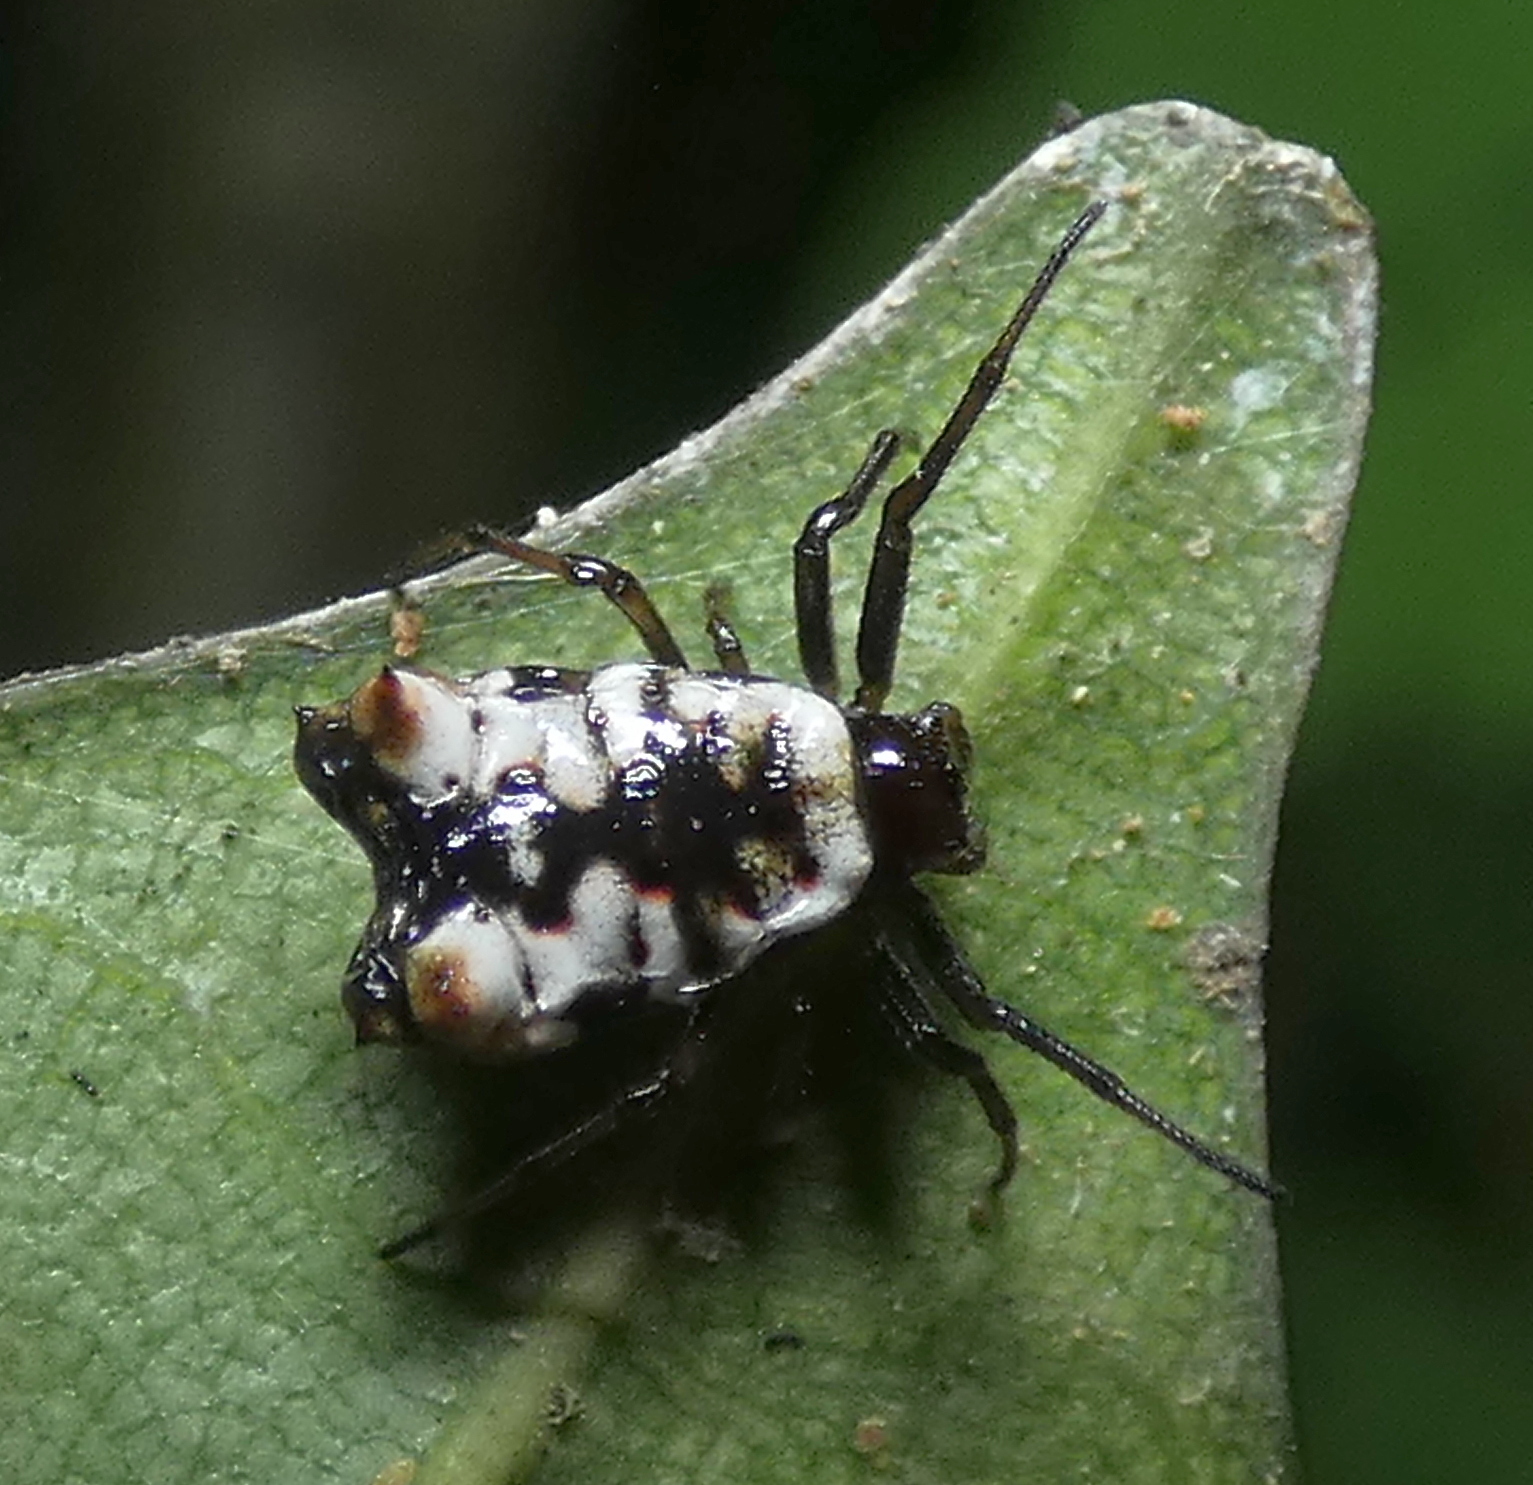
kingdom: Animalia
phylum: Arthropoda
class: Arachnida
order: Araneae
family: Araneidae
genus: Micrathena
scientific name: Micrathena patruelis
